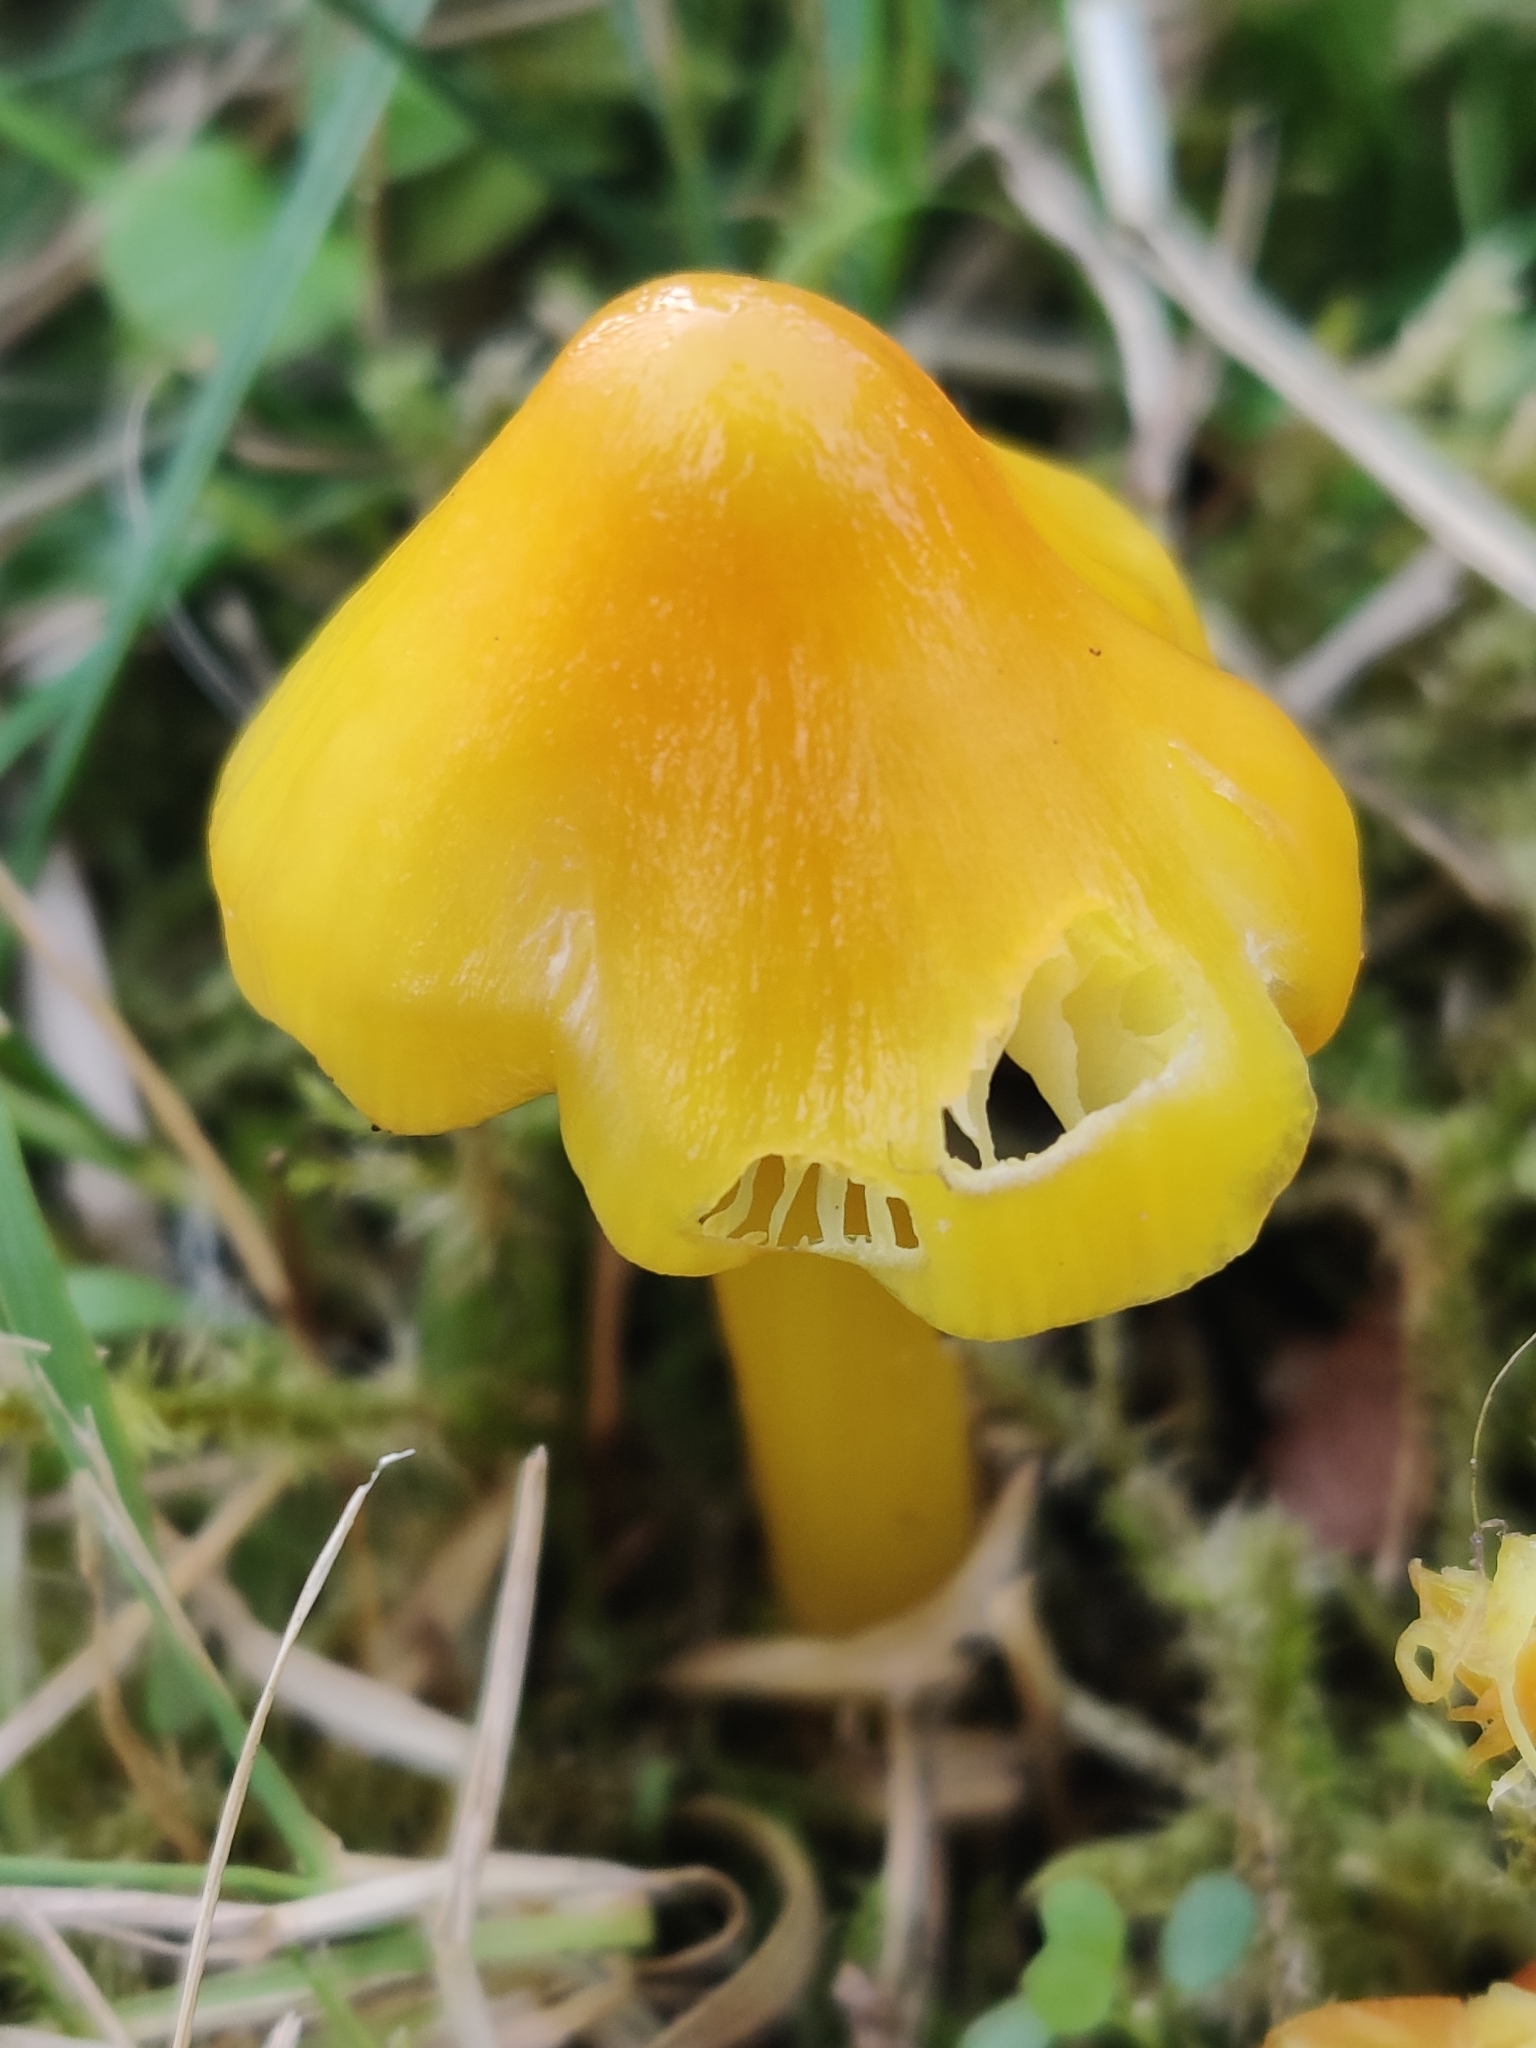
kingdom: Fungi
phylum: Basidiomycota
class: Agaricomycetes
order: Agaricales
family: Hygrophoraceae
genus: Hygrocybe
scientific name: Hygrocybe acutoconica
